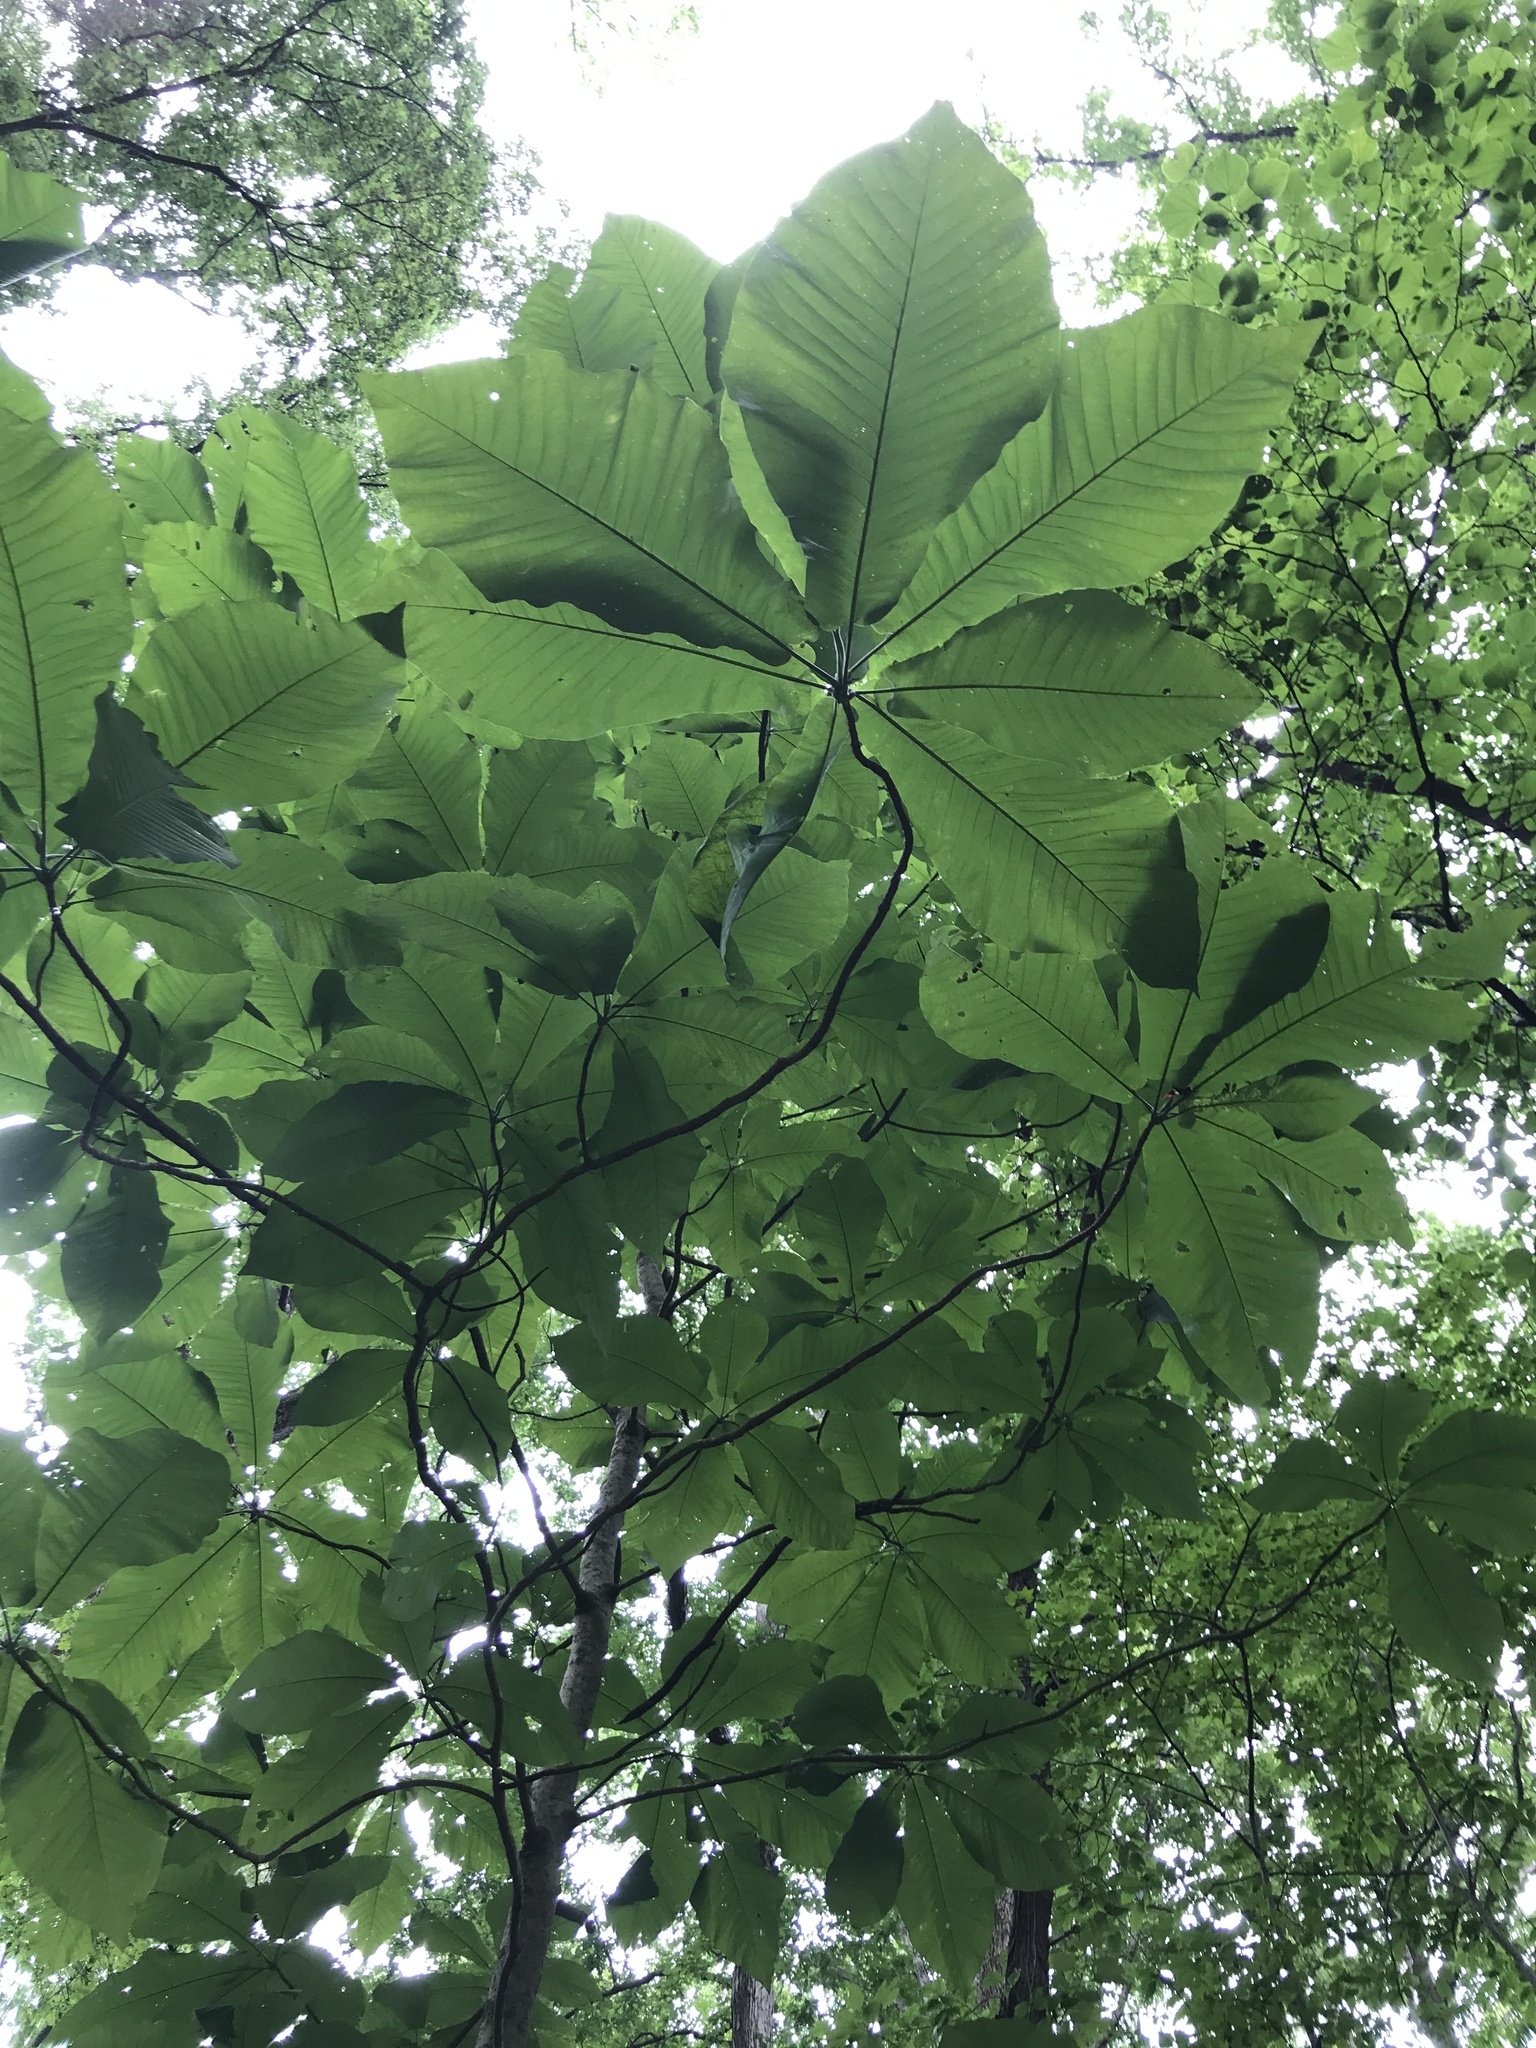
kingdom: Plantae
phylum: Tracheophyta
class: Magnoliopsida
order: Magnoliales
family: Magnoliaceae
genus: Magnolia
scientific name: Magnolia macrophylla
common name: Big-leaf magnolia
